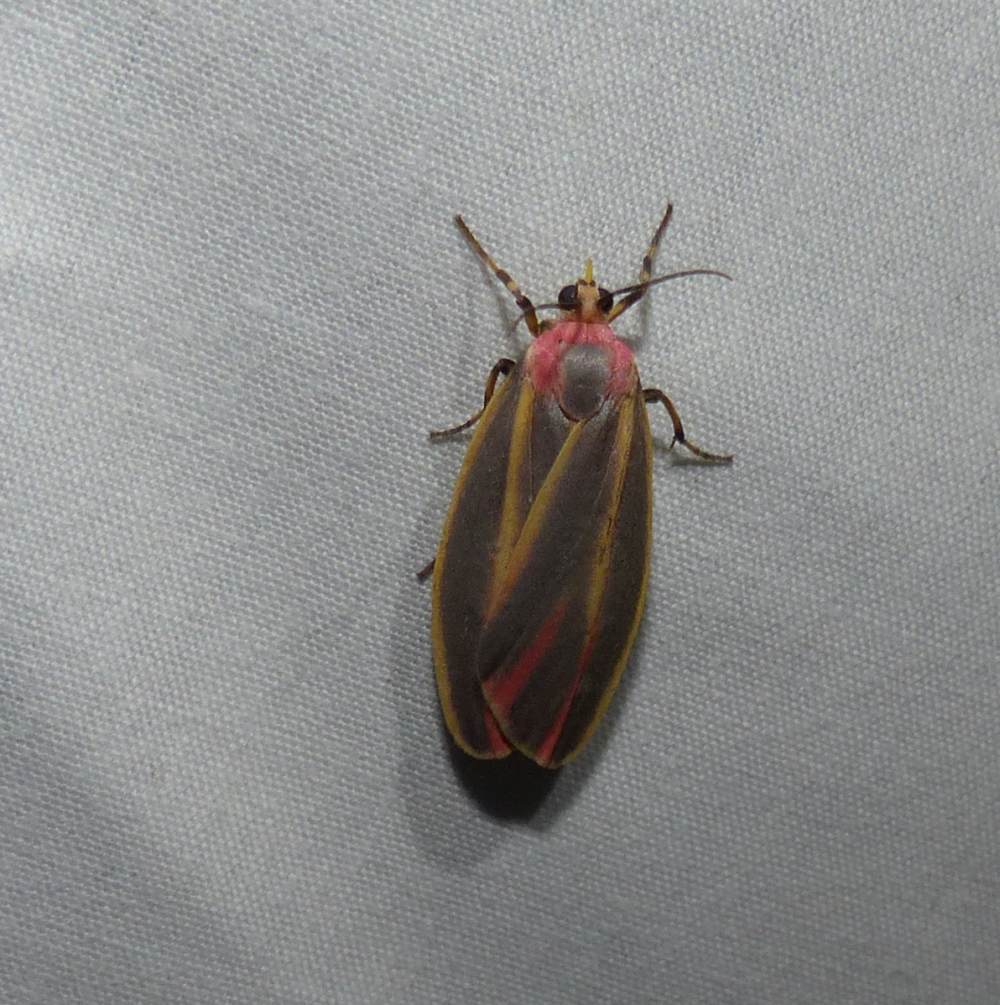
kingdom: Animalia
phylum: Arthropoda
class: Insecta
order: Lepidoptera
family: Erebidae
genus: Hypoprepia
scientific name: Hypoprepia fucosa
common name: Painted lichen moth
